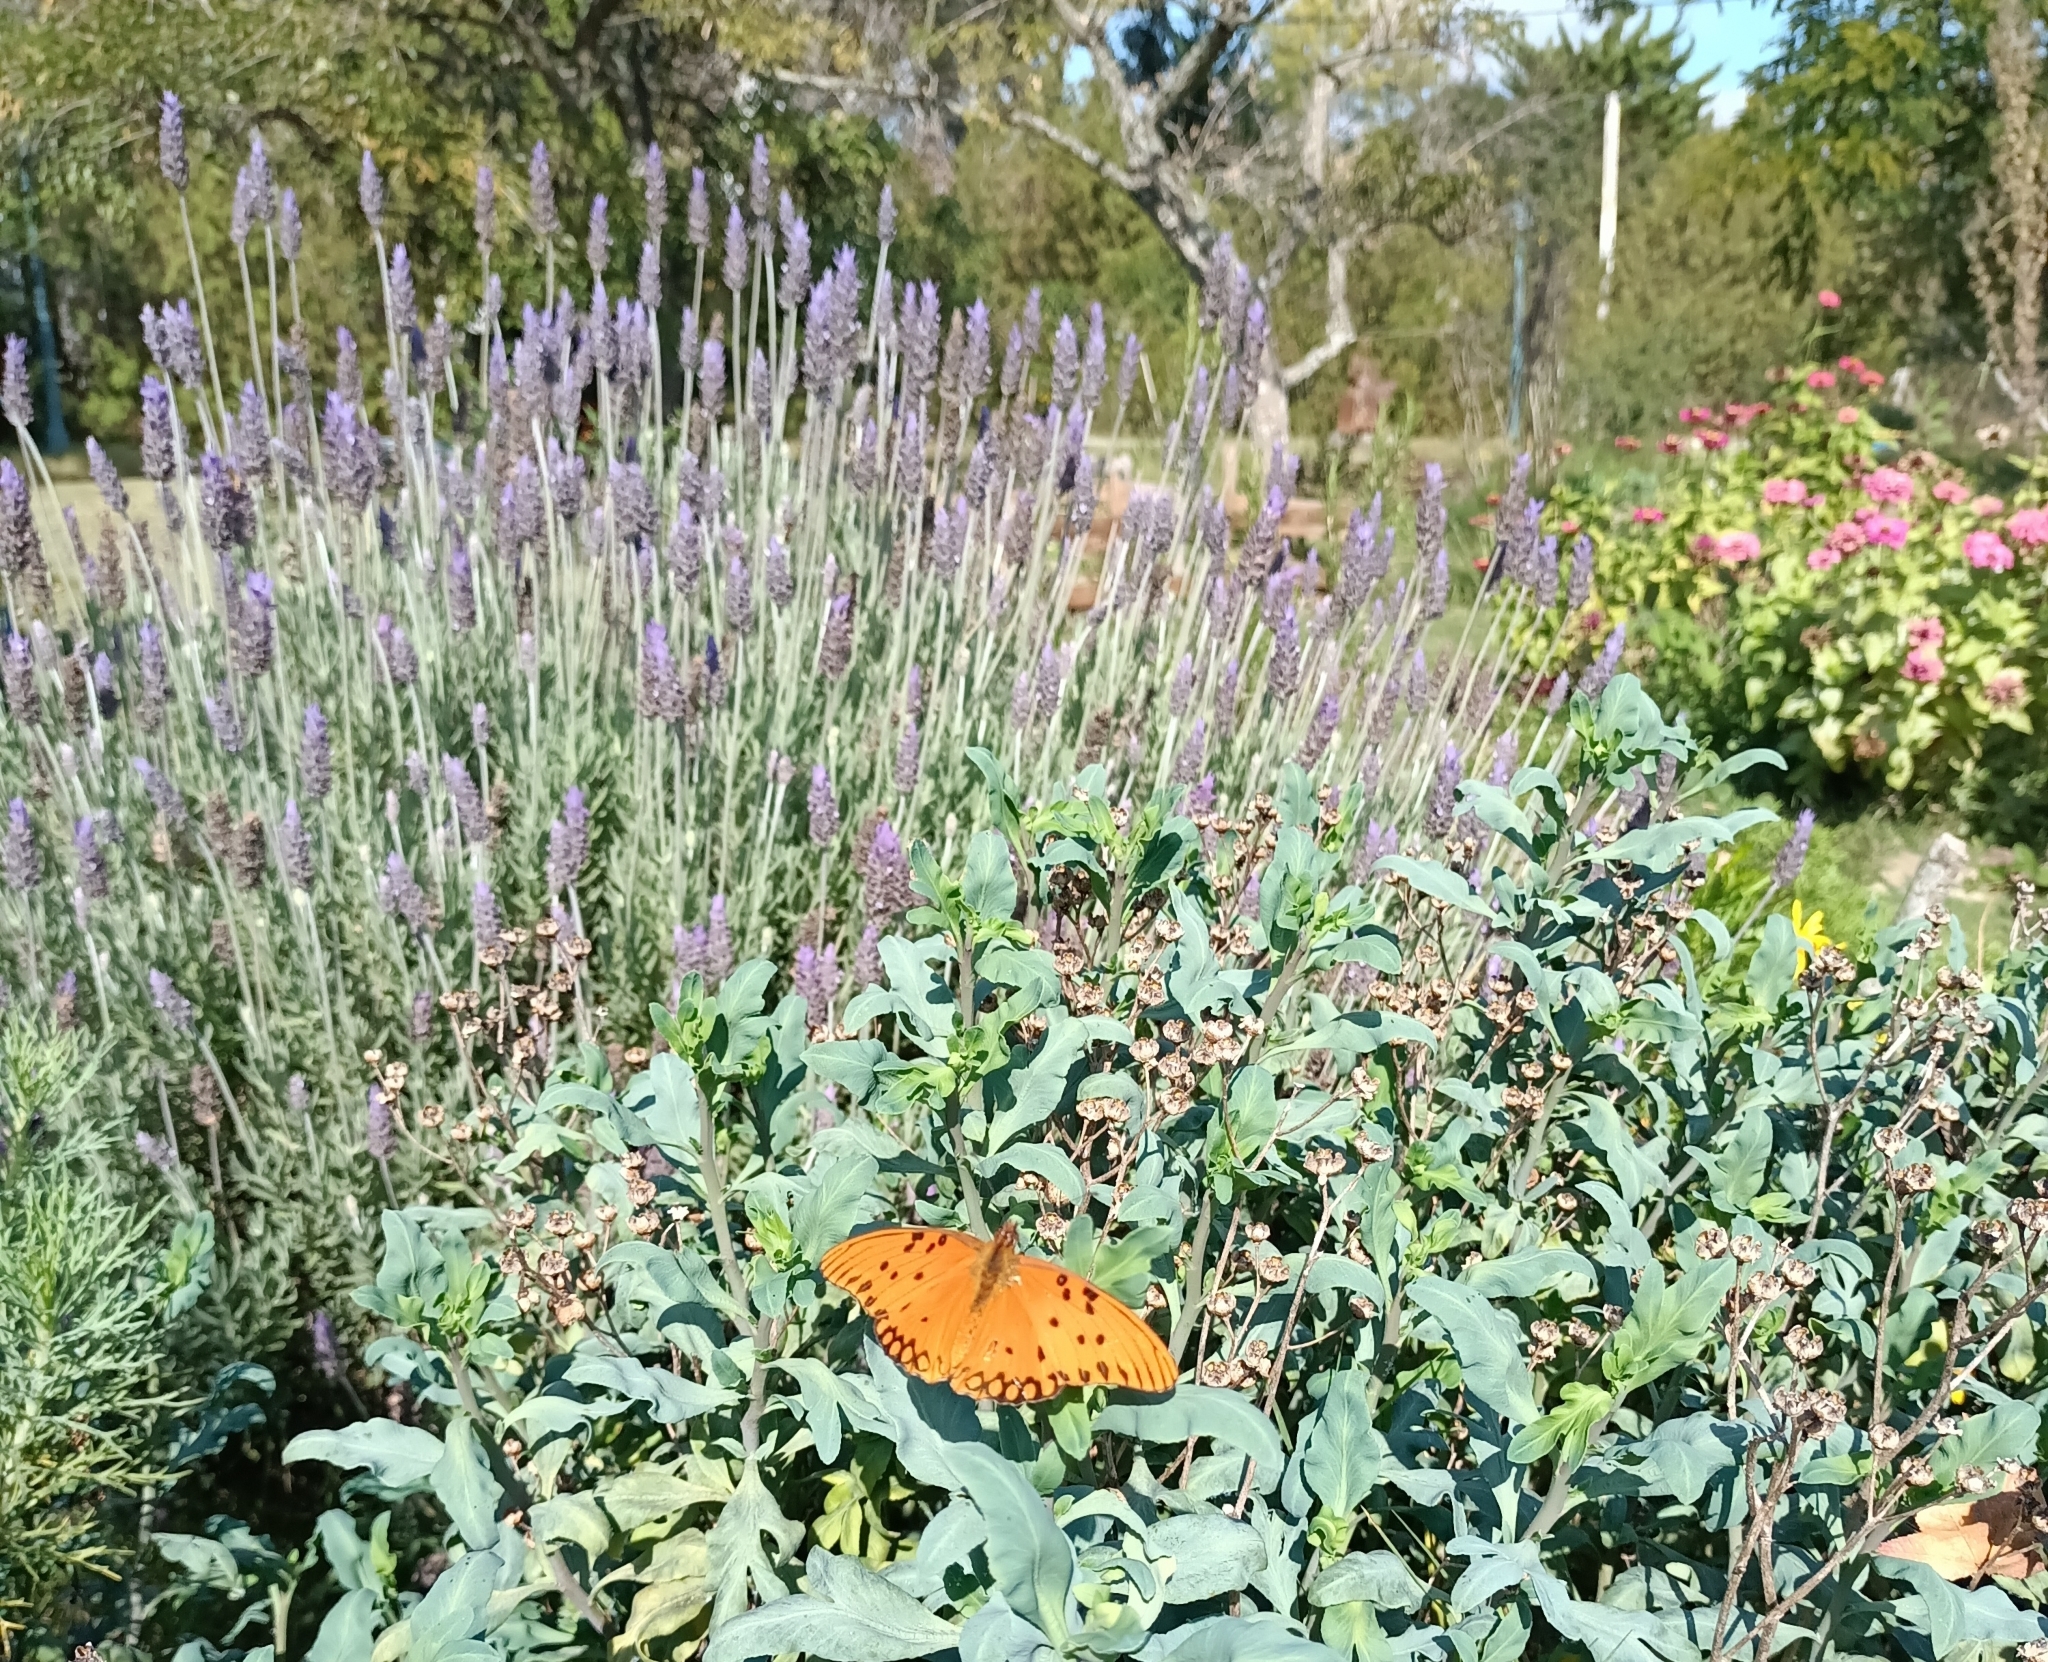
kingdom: Animalia
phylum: Arthropoda
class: Insecta
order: Lepidoptera
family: Nymphalidae
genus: Dione
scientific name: Dione vanillae
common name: Gulf fritillary
